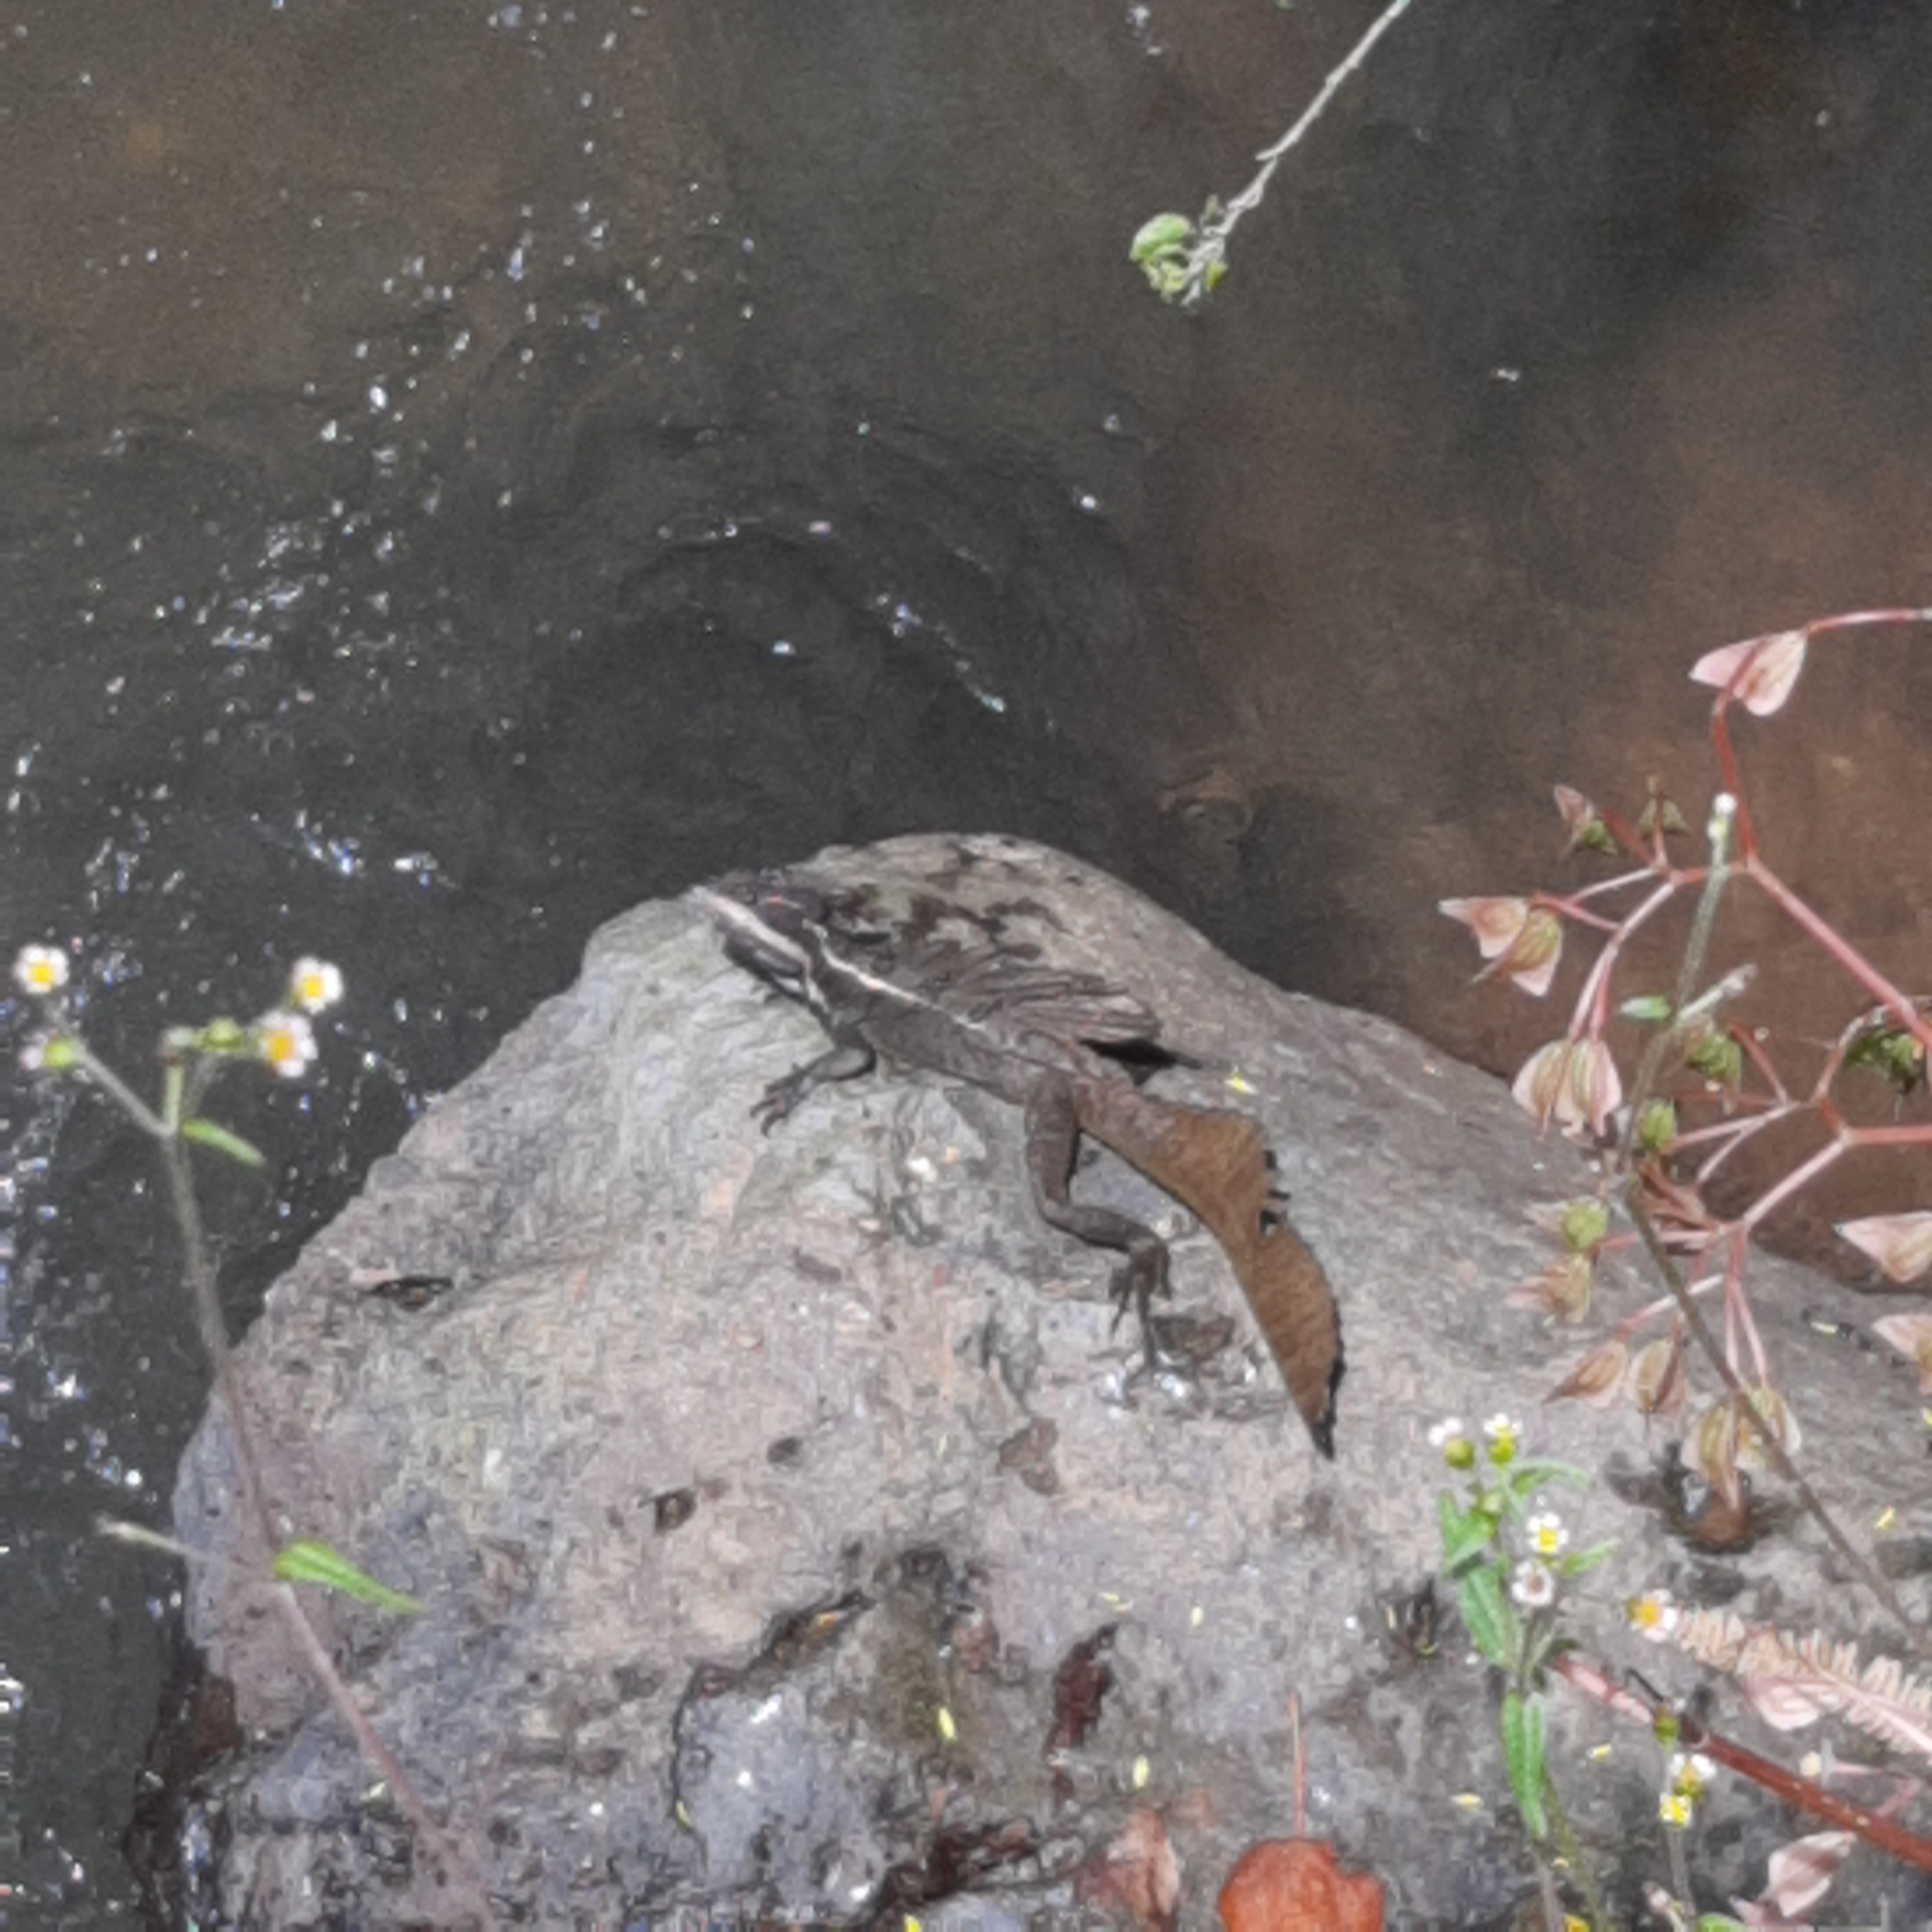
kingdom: Animalia
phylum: Chordata
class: Squamata
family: Corytophanidae
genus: Basiliscus
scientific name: Basiliscus basiliscus
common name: Common basilisk
